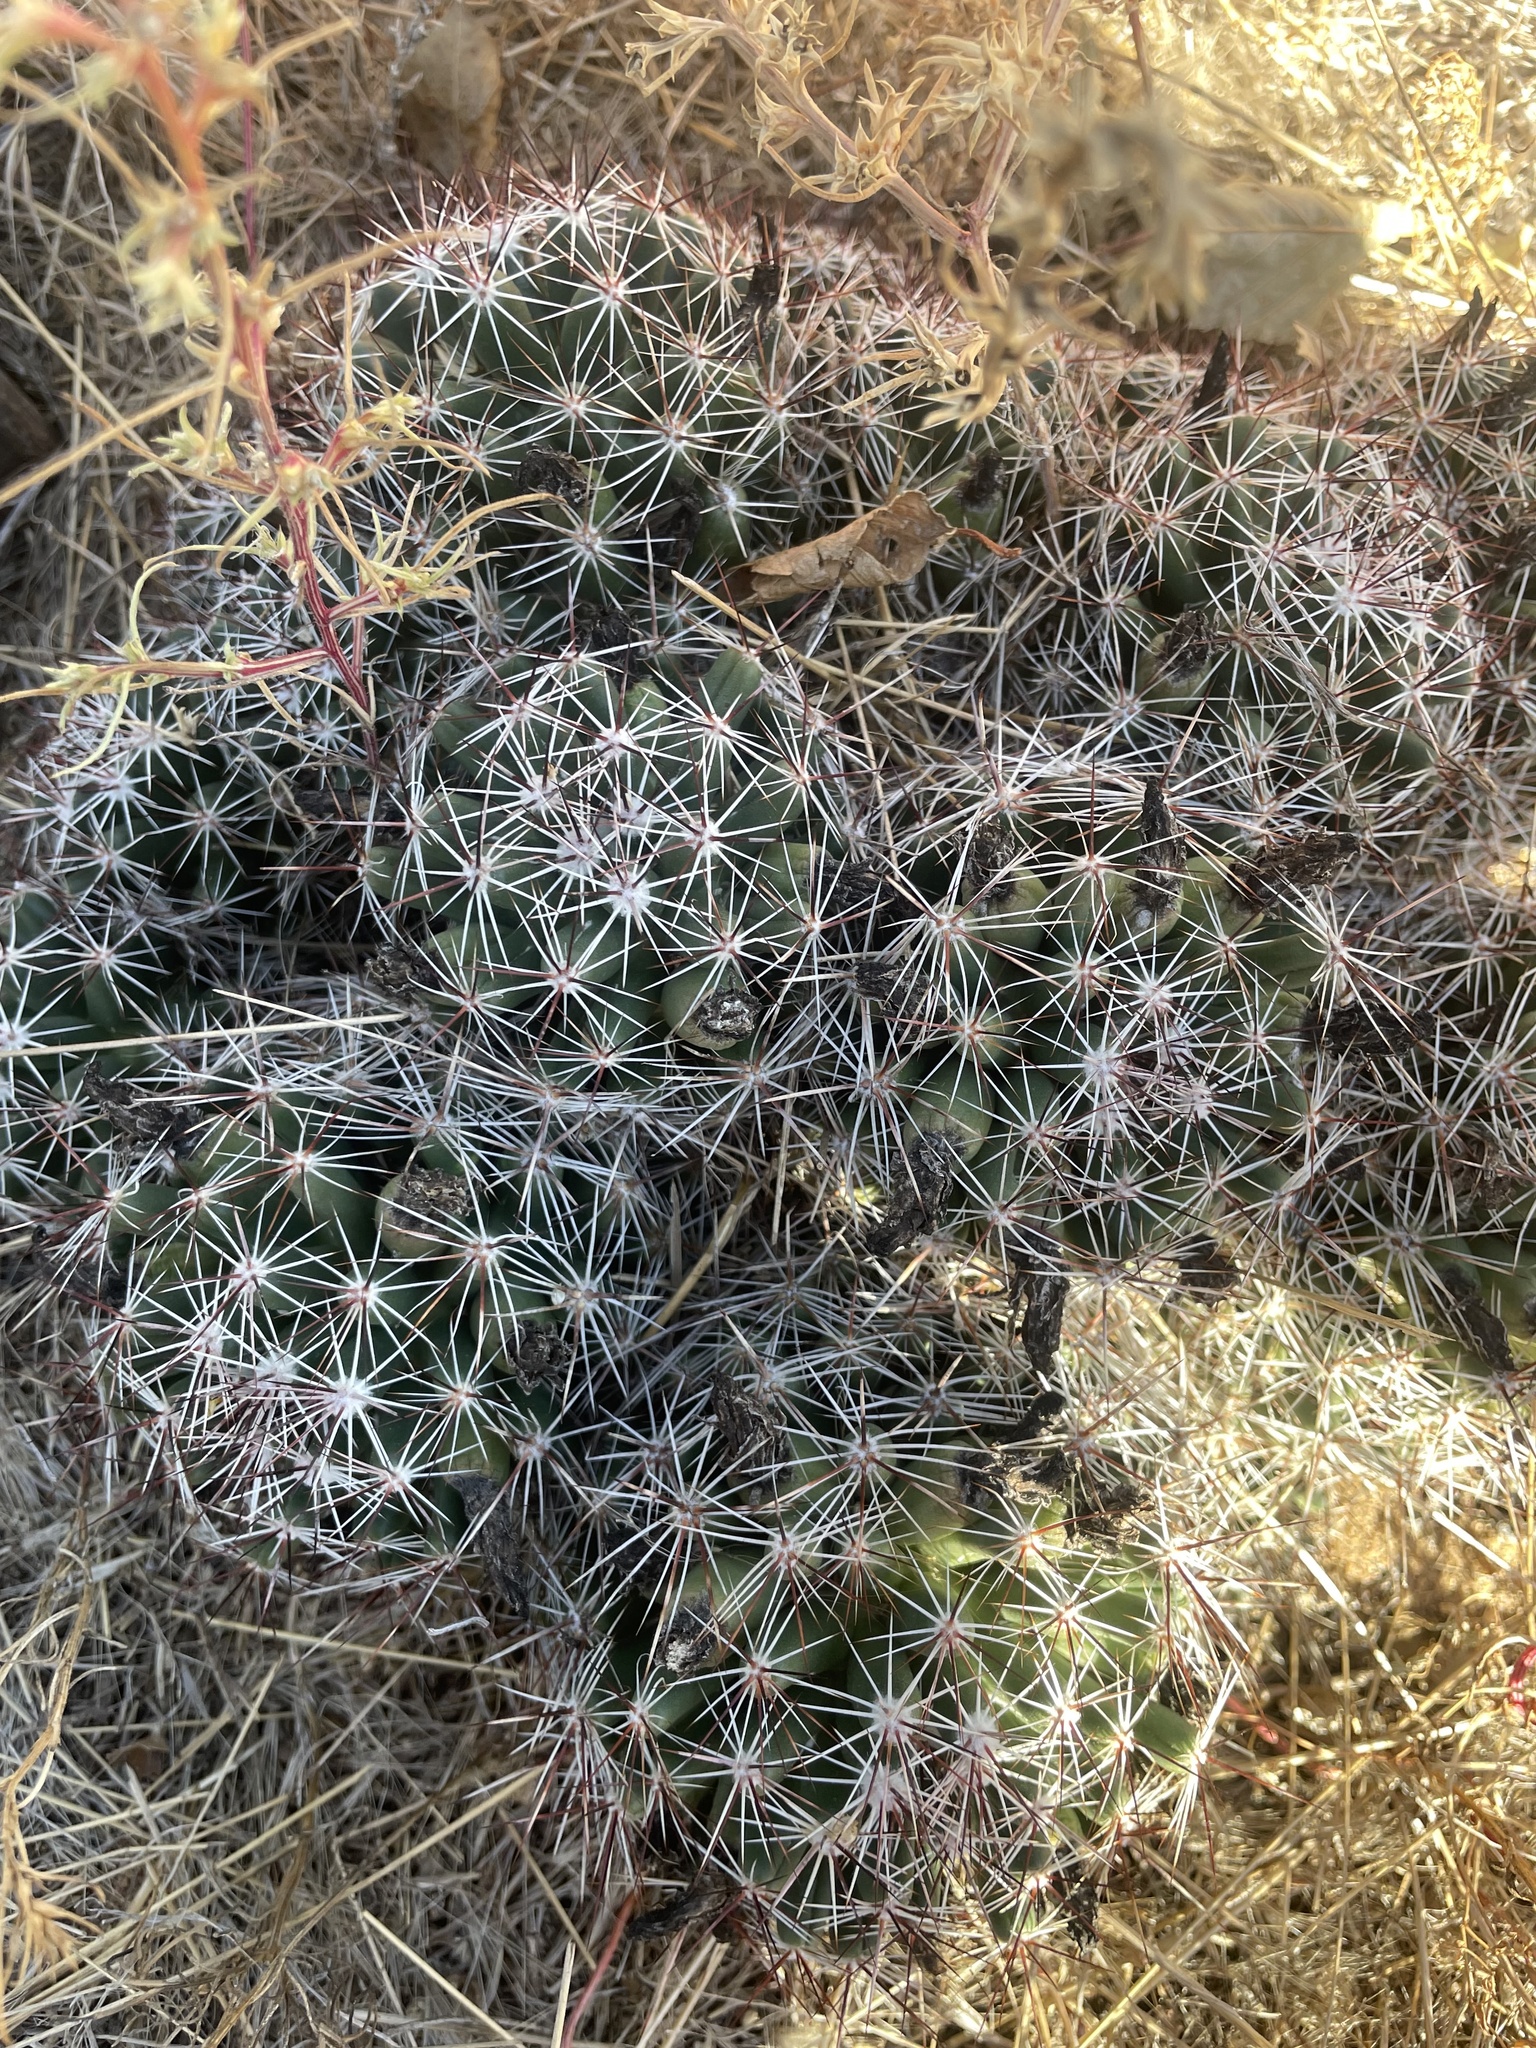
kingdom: Plantae
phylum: Tracheophyta
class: Magnoliopsida
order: Caryophyllales
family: Cactaceae
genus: Pelecyphora
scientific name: Pelecyphora vivipara
